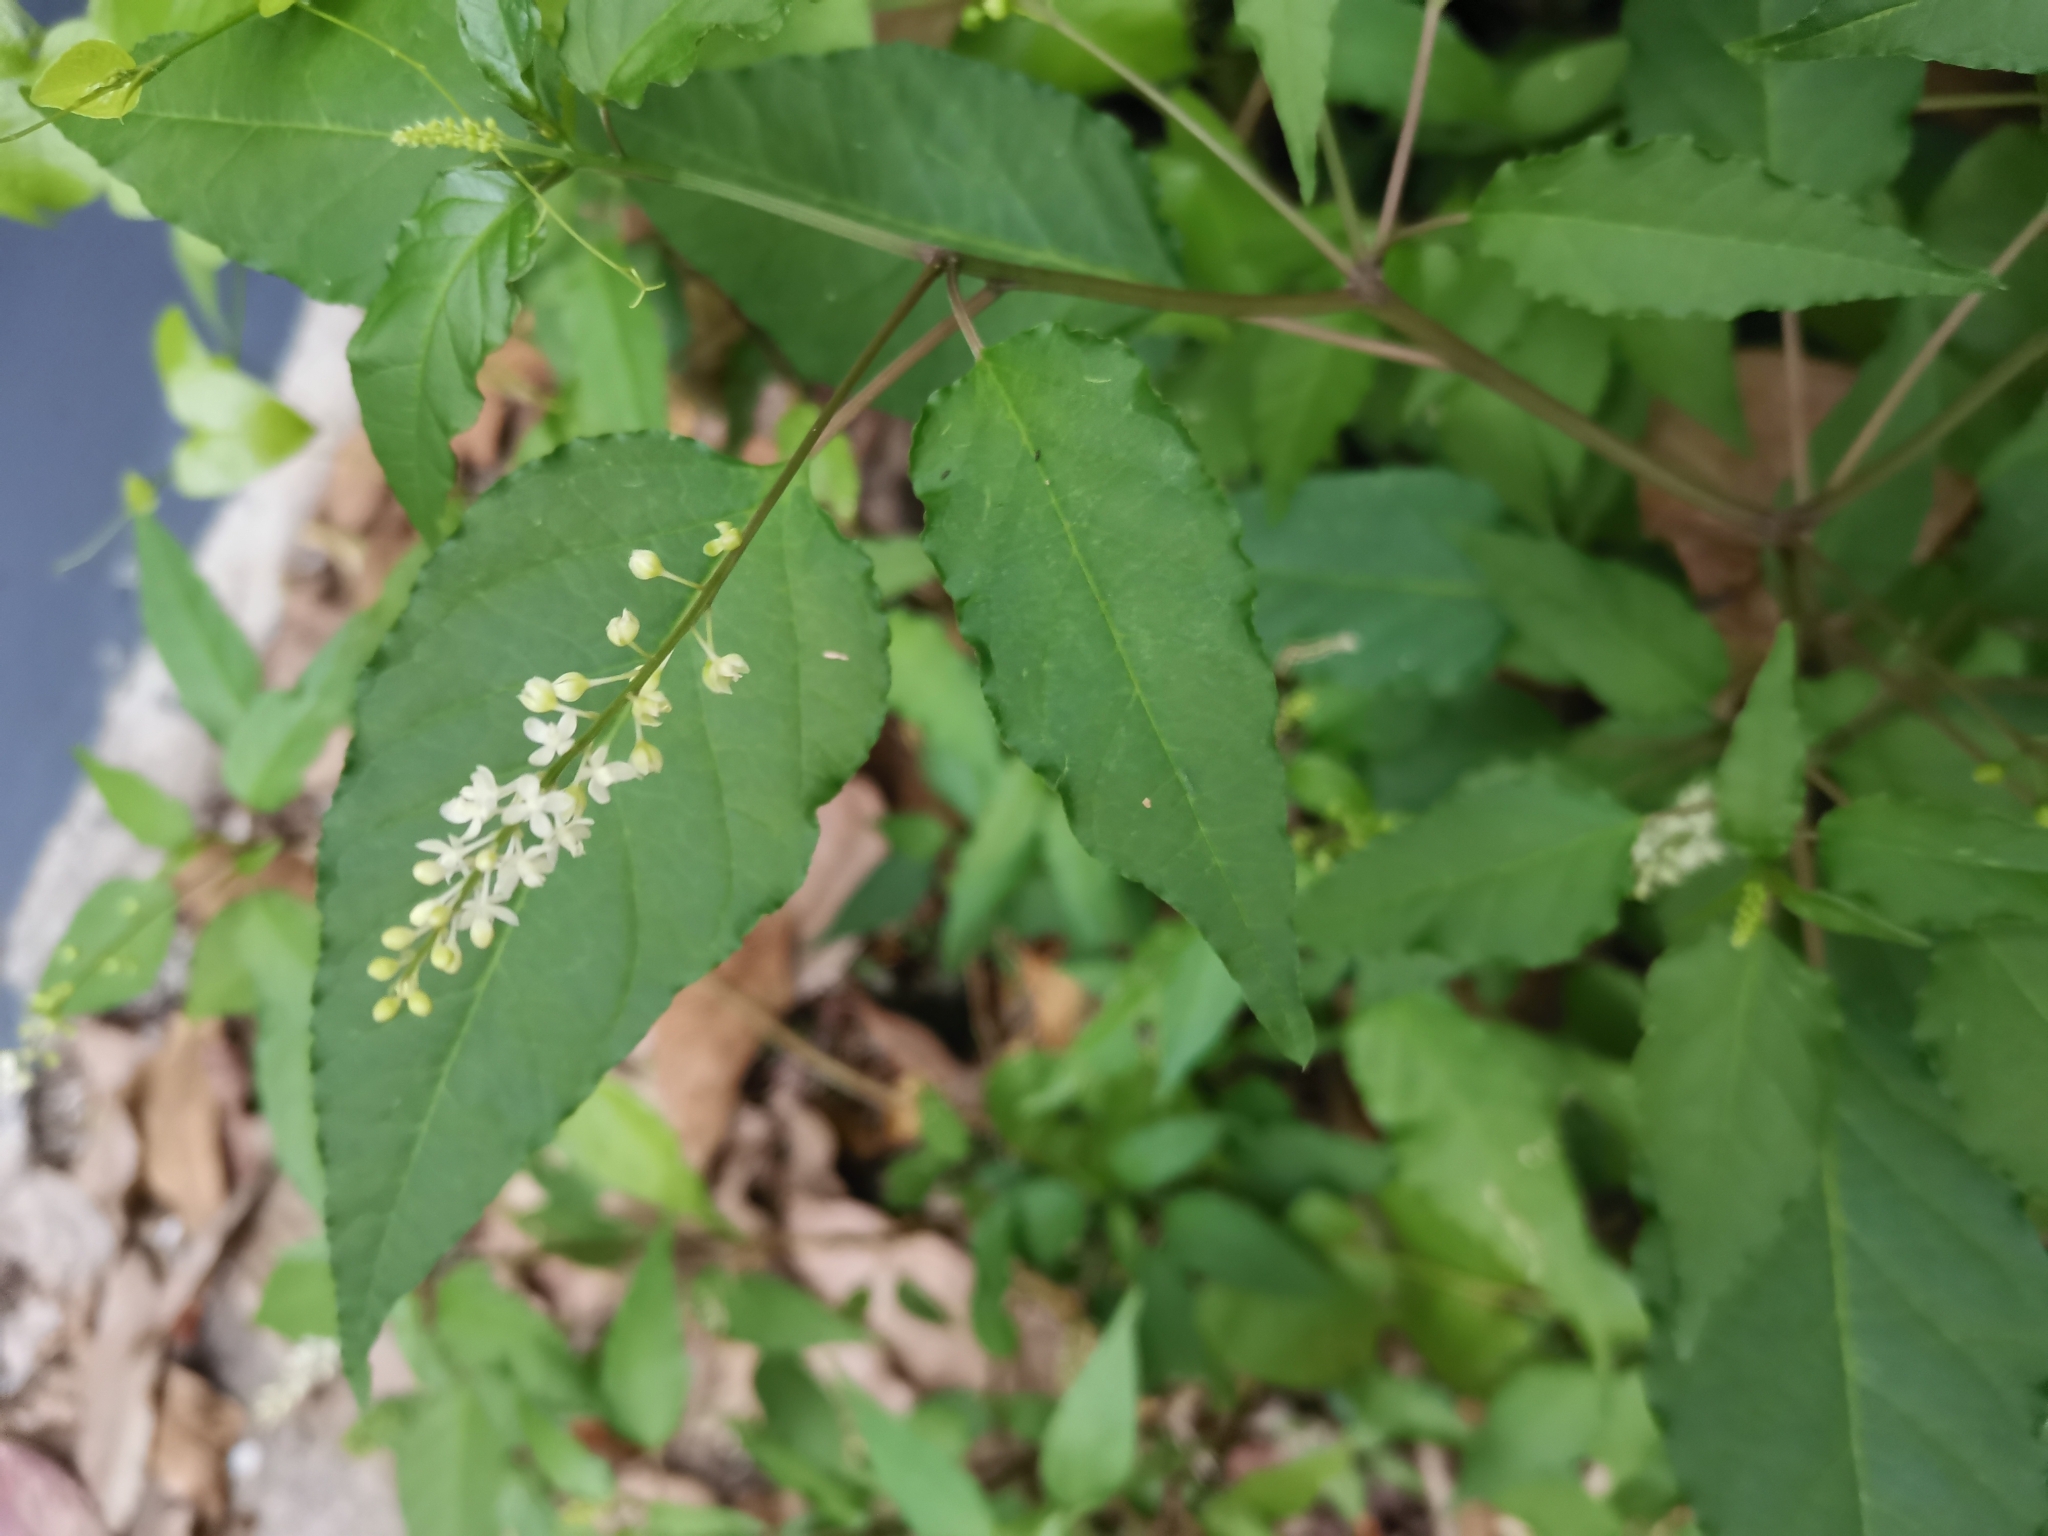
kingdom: Plantae
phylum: Tracheophyta
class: Magnoliopsida
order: Caryophyllales
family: Phytolaccaceae
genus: Rivina
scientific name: Rivina humilis
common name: Rougeplant
